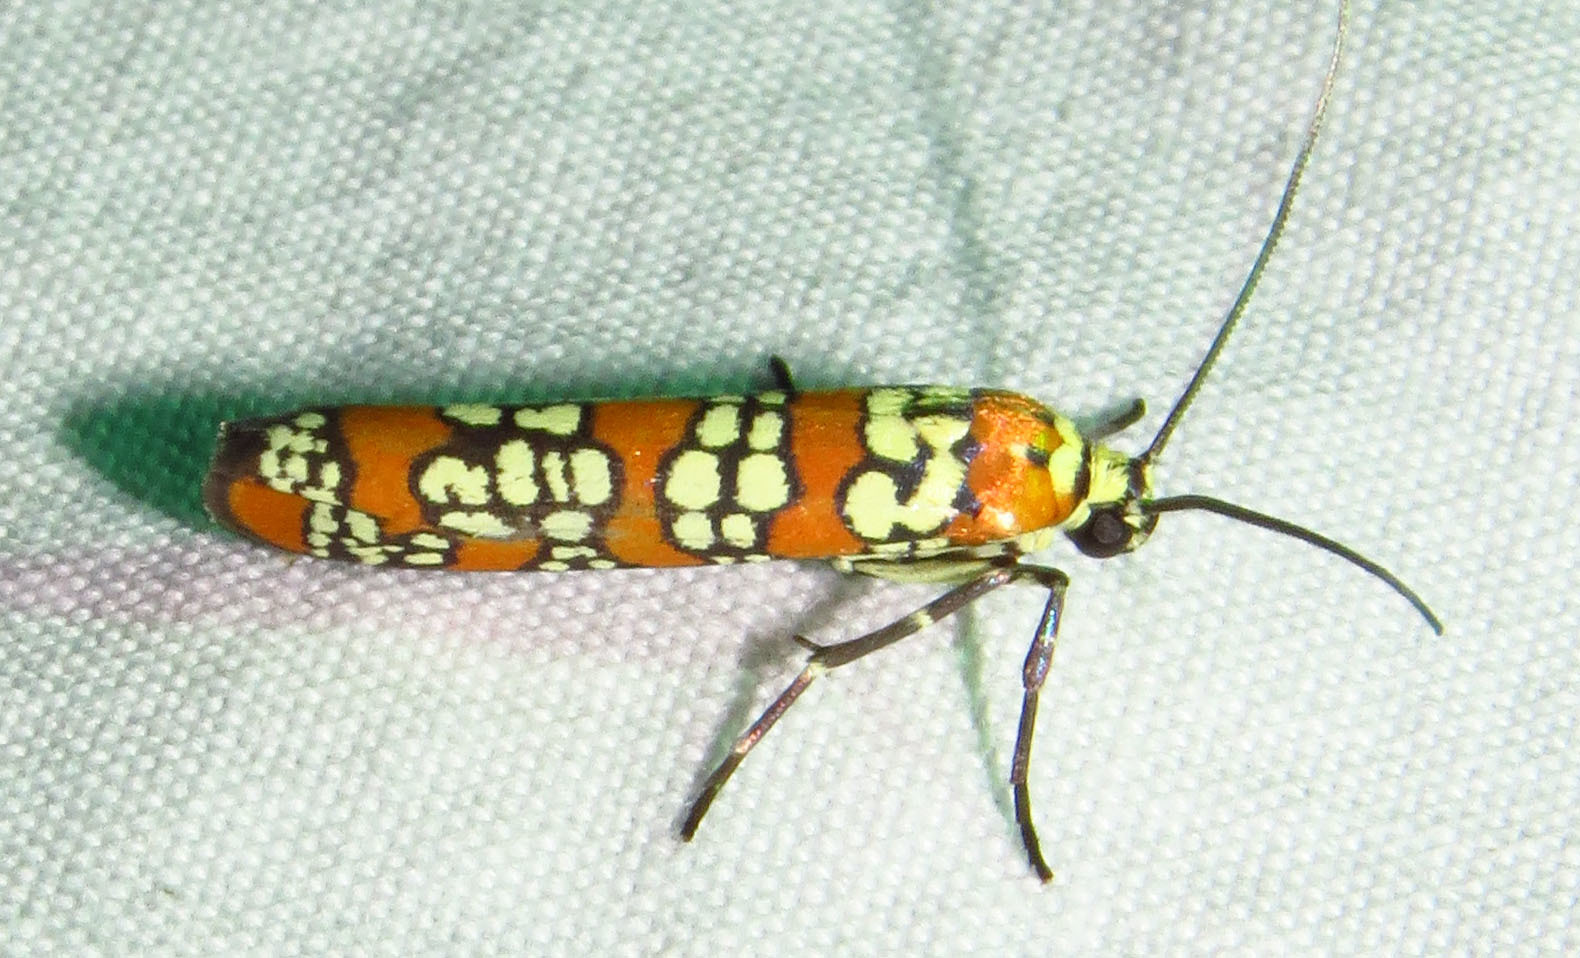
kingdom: Animalia
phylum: Arthropoda
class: Insecta
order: Lepidoptera
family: Attevidae
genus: Atteva
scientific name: Atteva punctella
